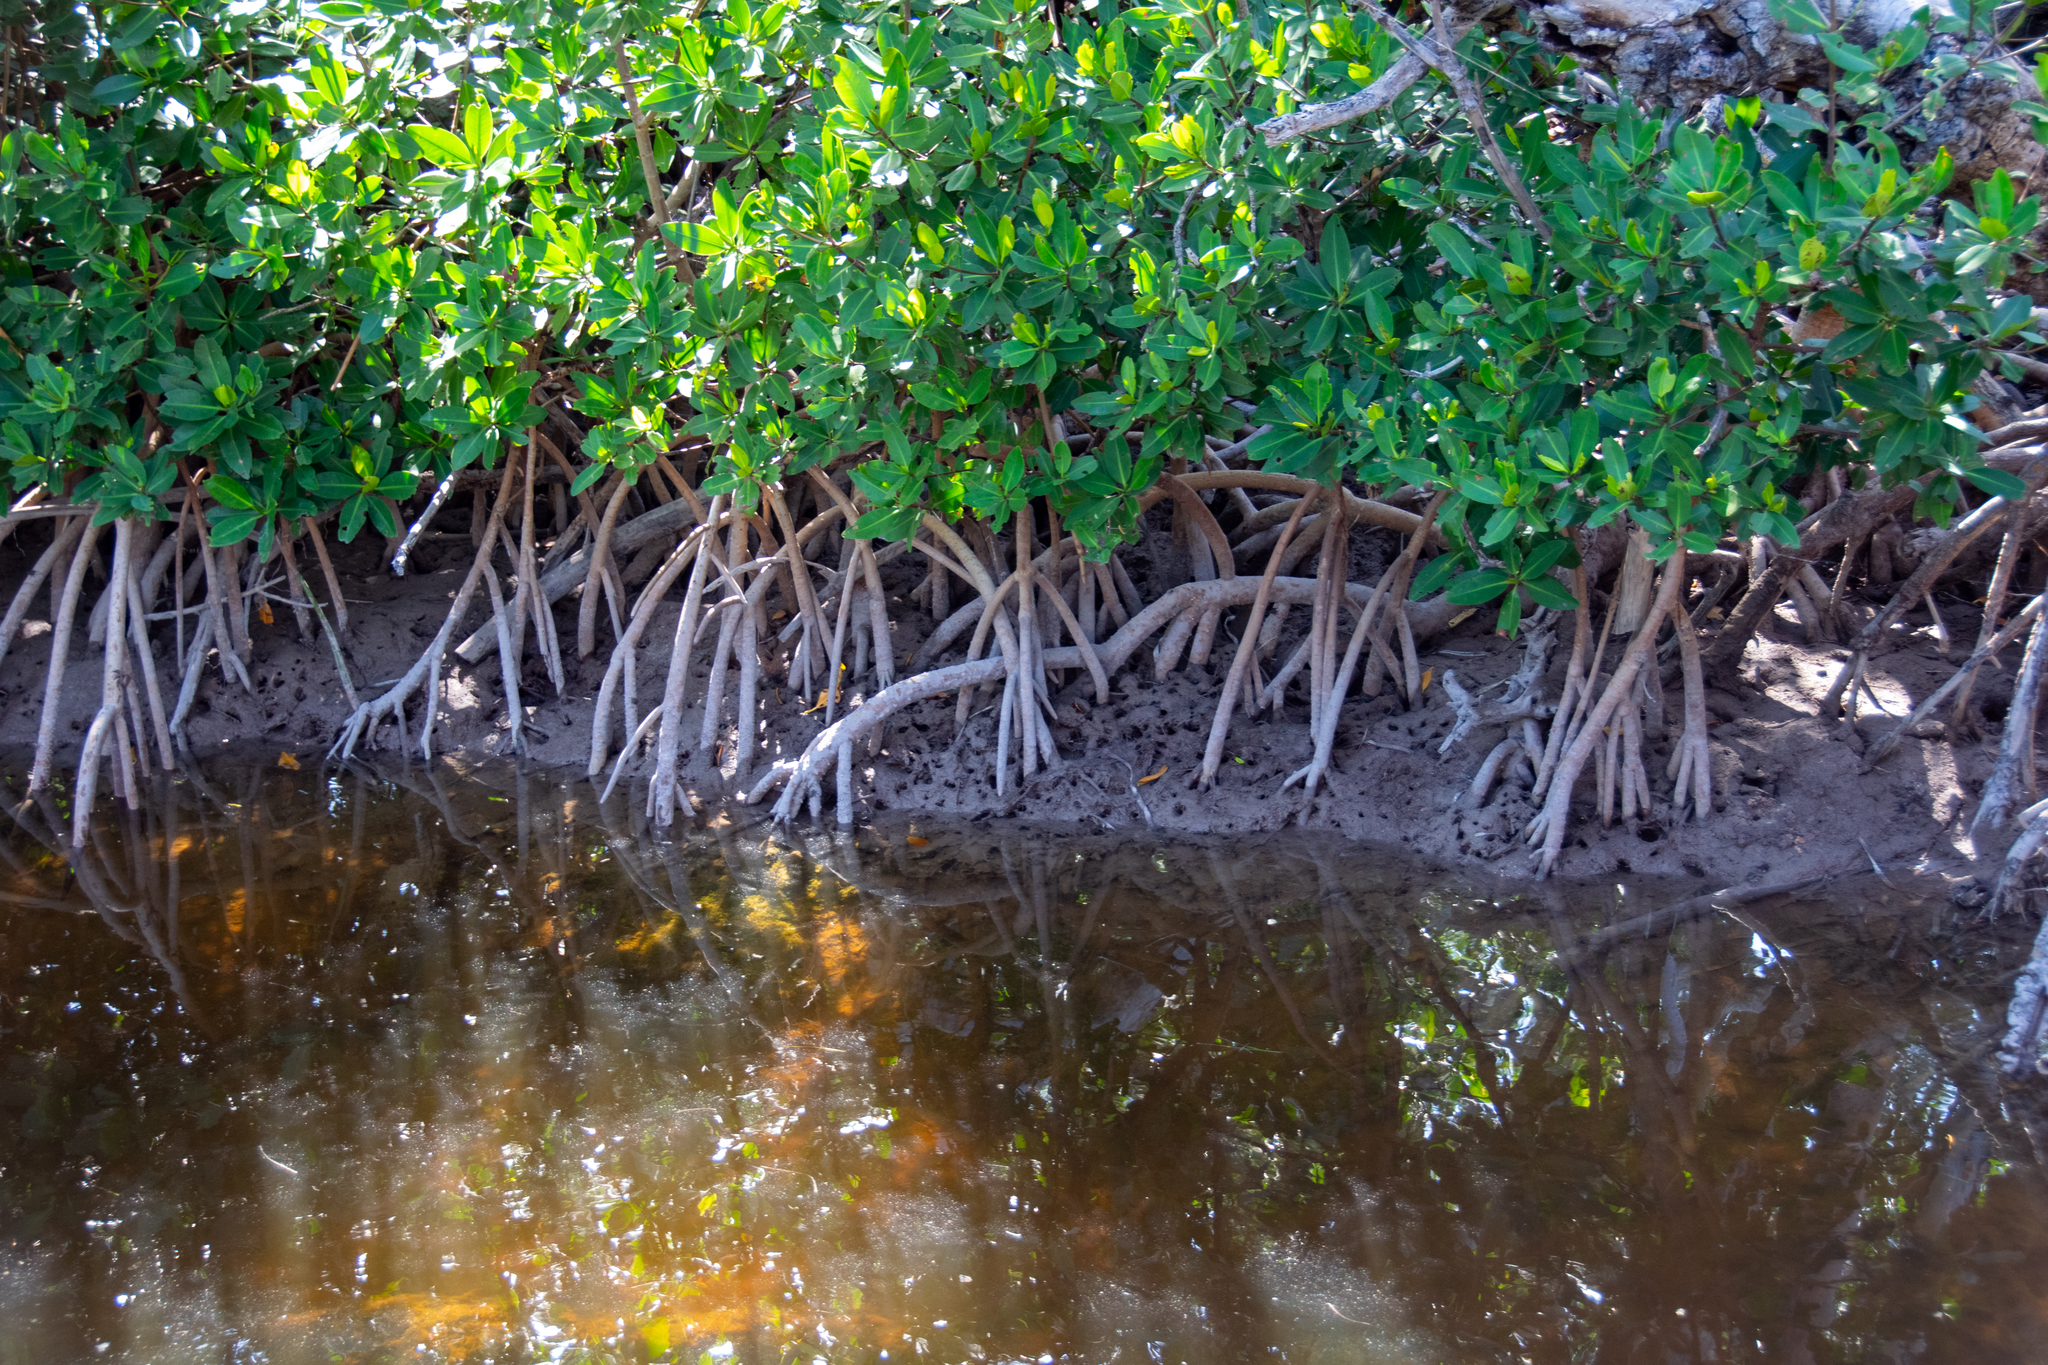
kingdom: Plantae
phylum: Tracheophyta
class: Magnoliopsida
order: Malpighiales
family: Rhizophoraceae
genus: Rhizophora
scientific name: Rhizophora mangle
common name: Red mangrove
